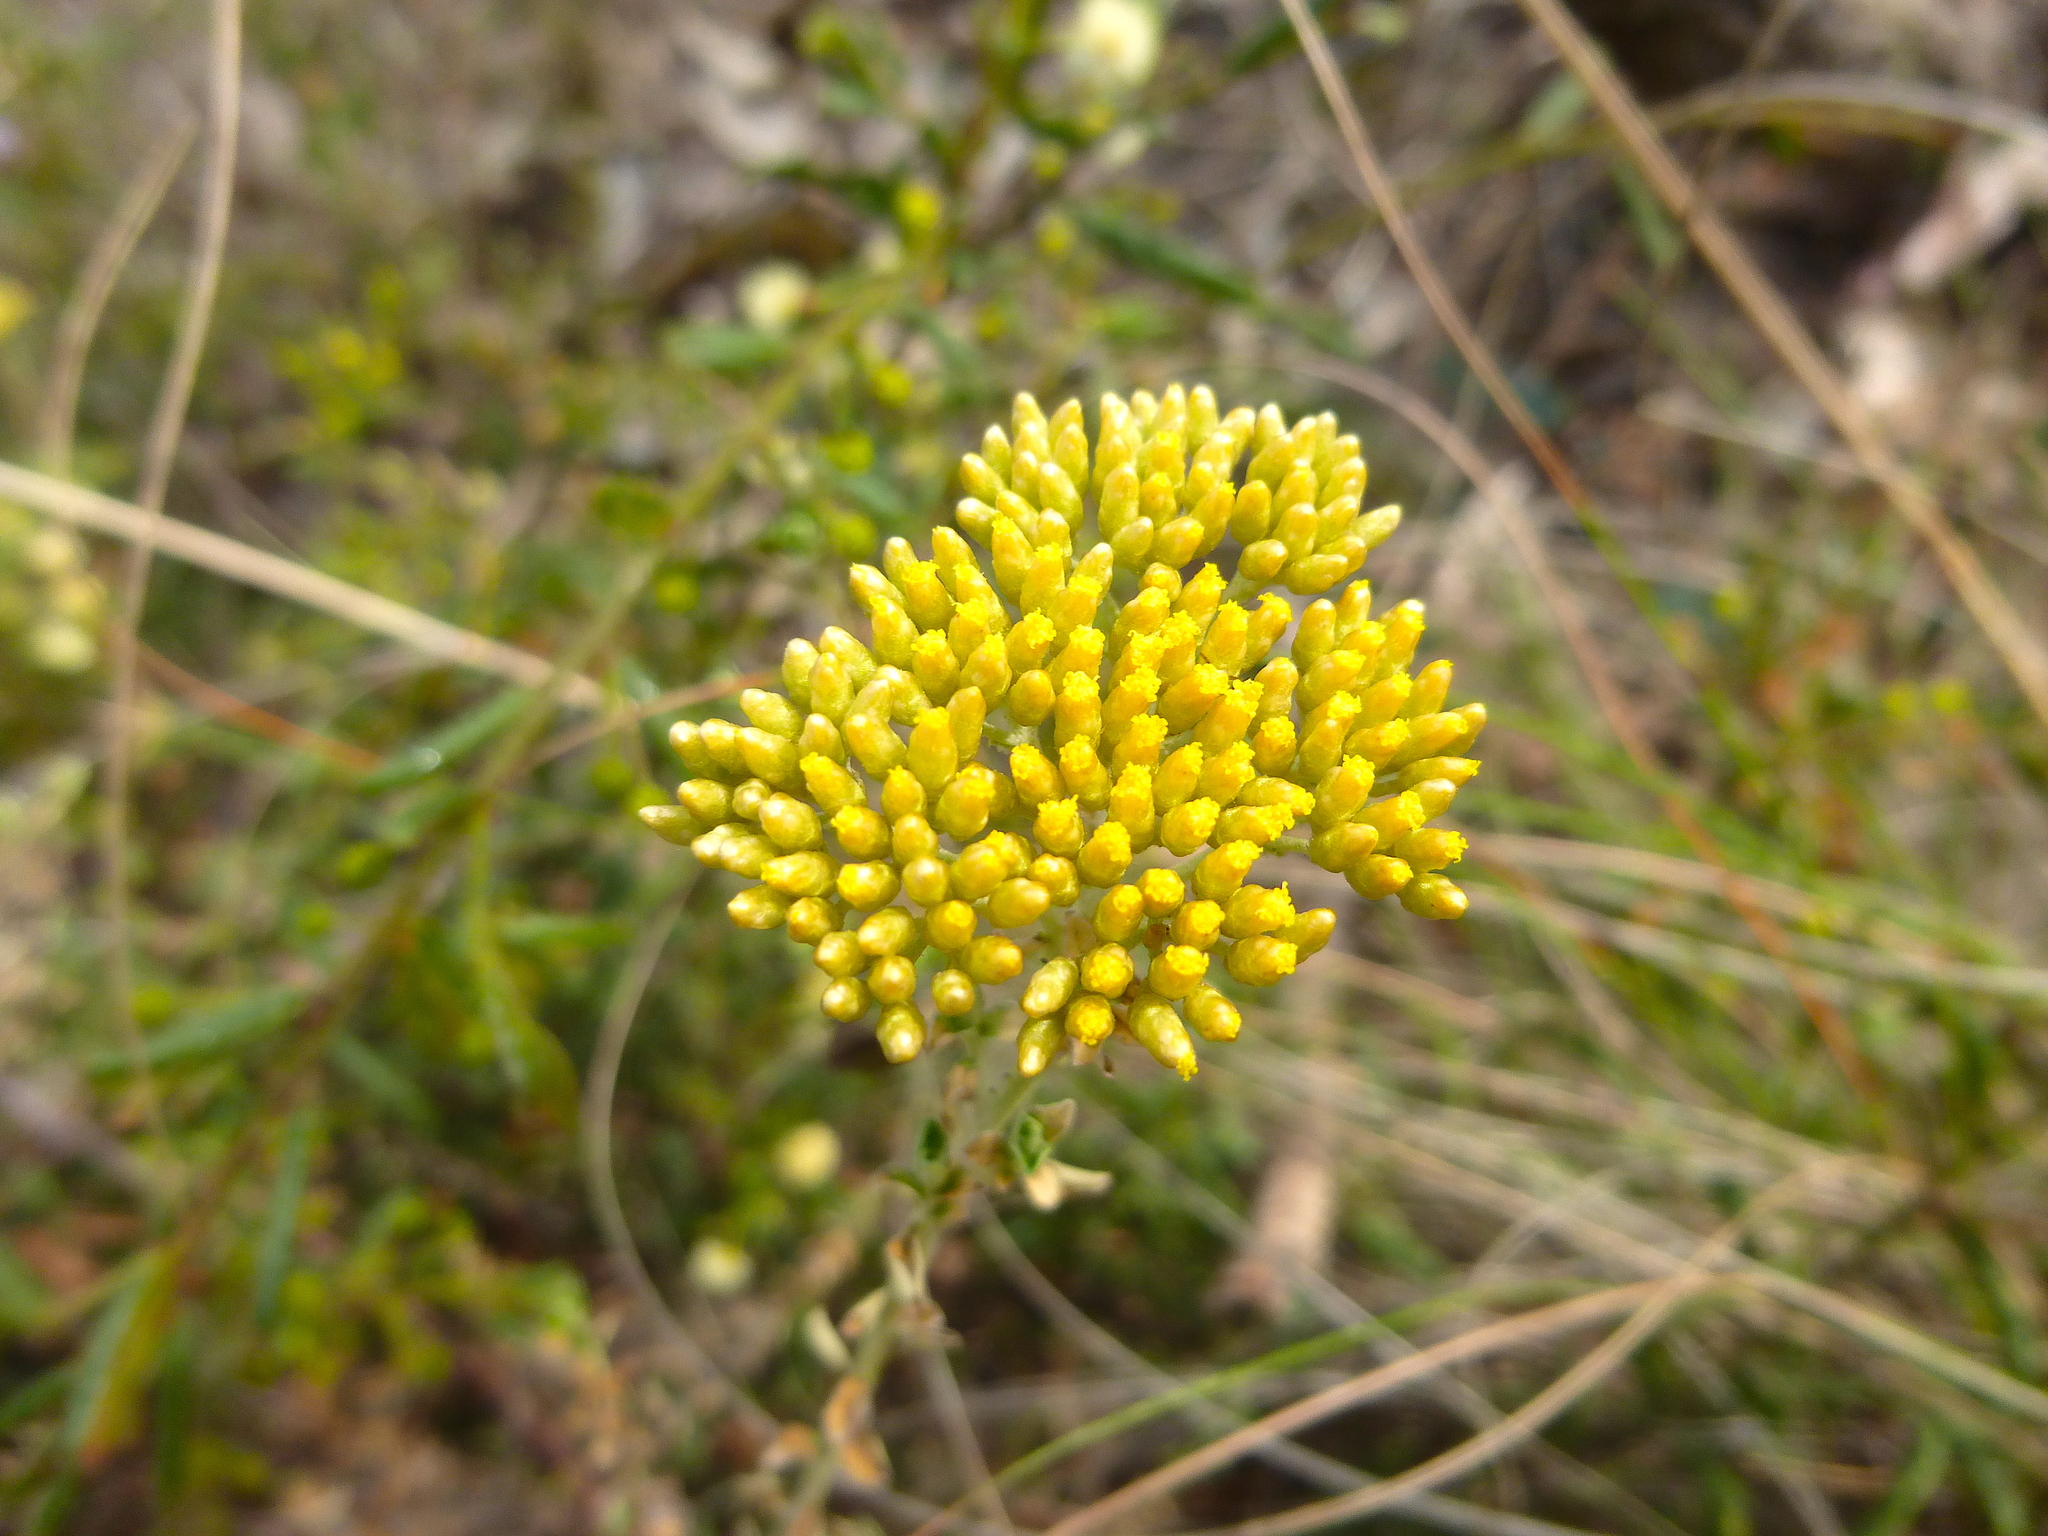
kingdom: Plantae
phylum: Tracheophyta
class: Magnoliopsida
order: Asterales
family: Asteraceae
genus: Ozothamnus
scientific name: Ozothamnus obcordatus
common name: Grey everlasting
